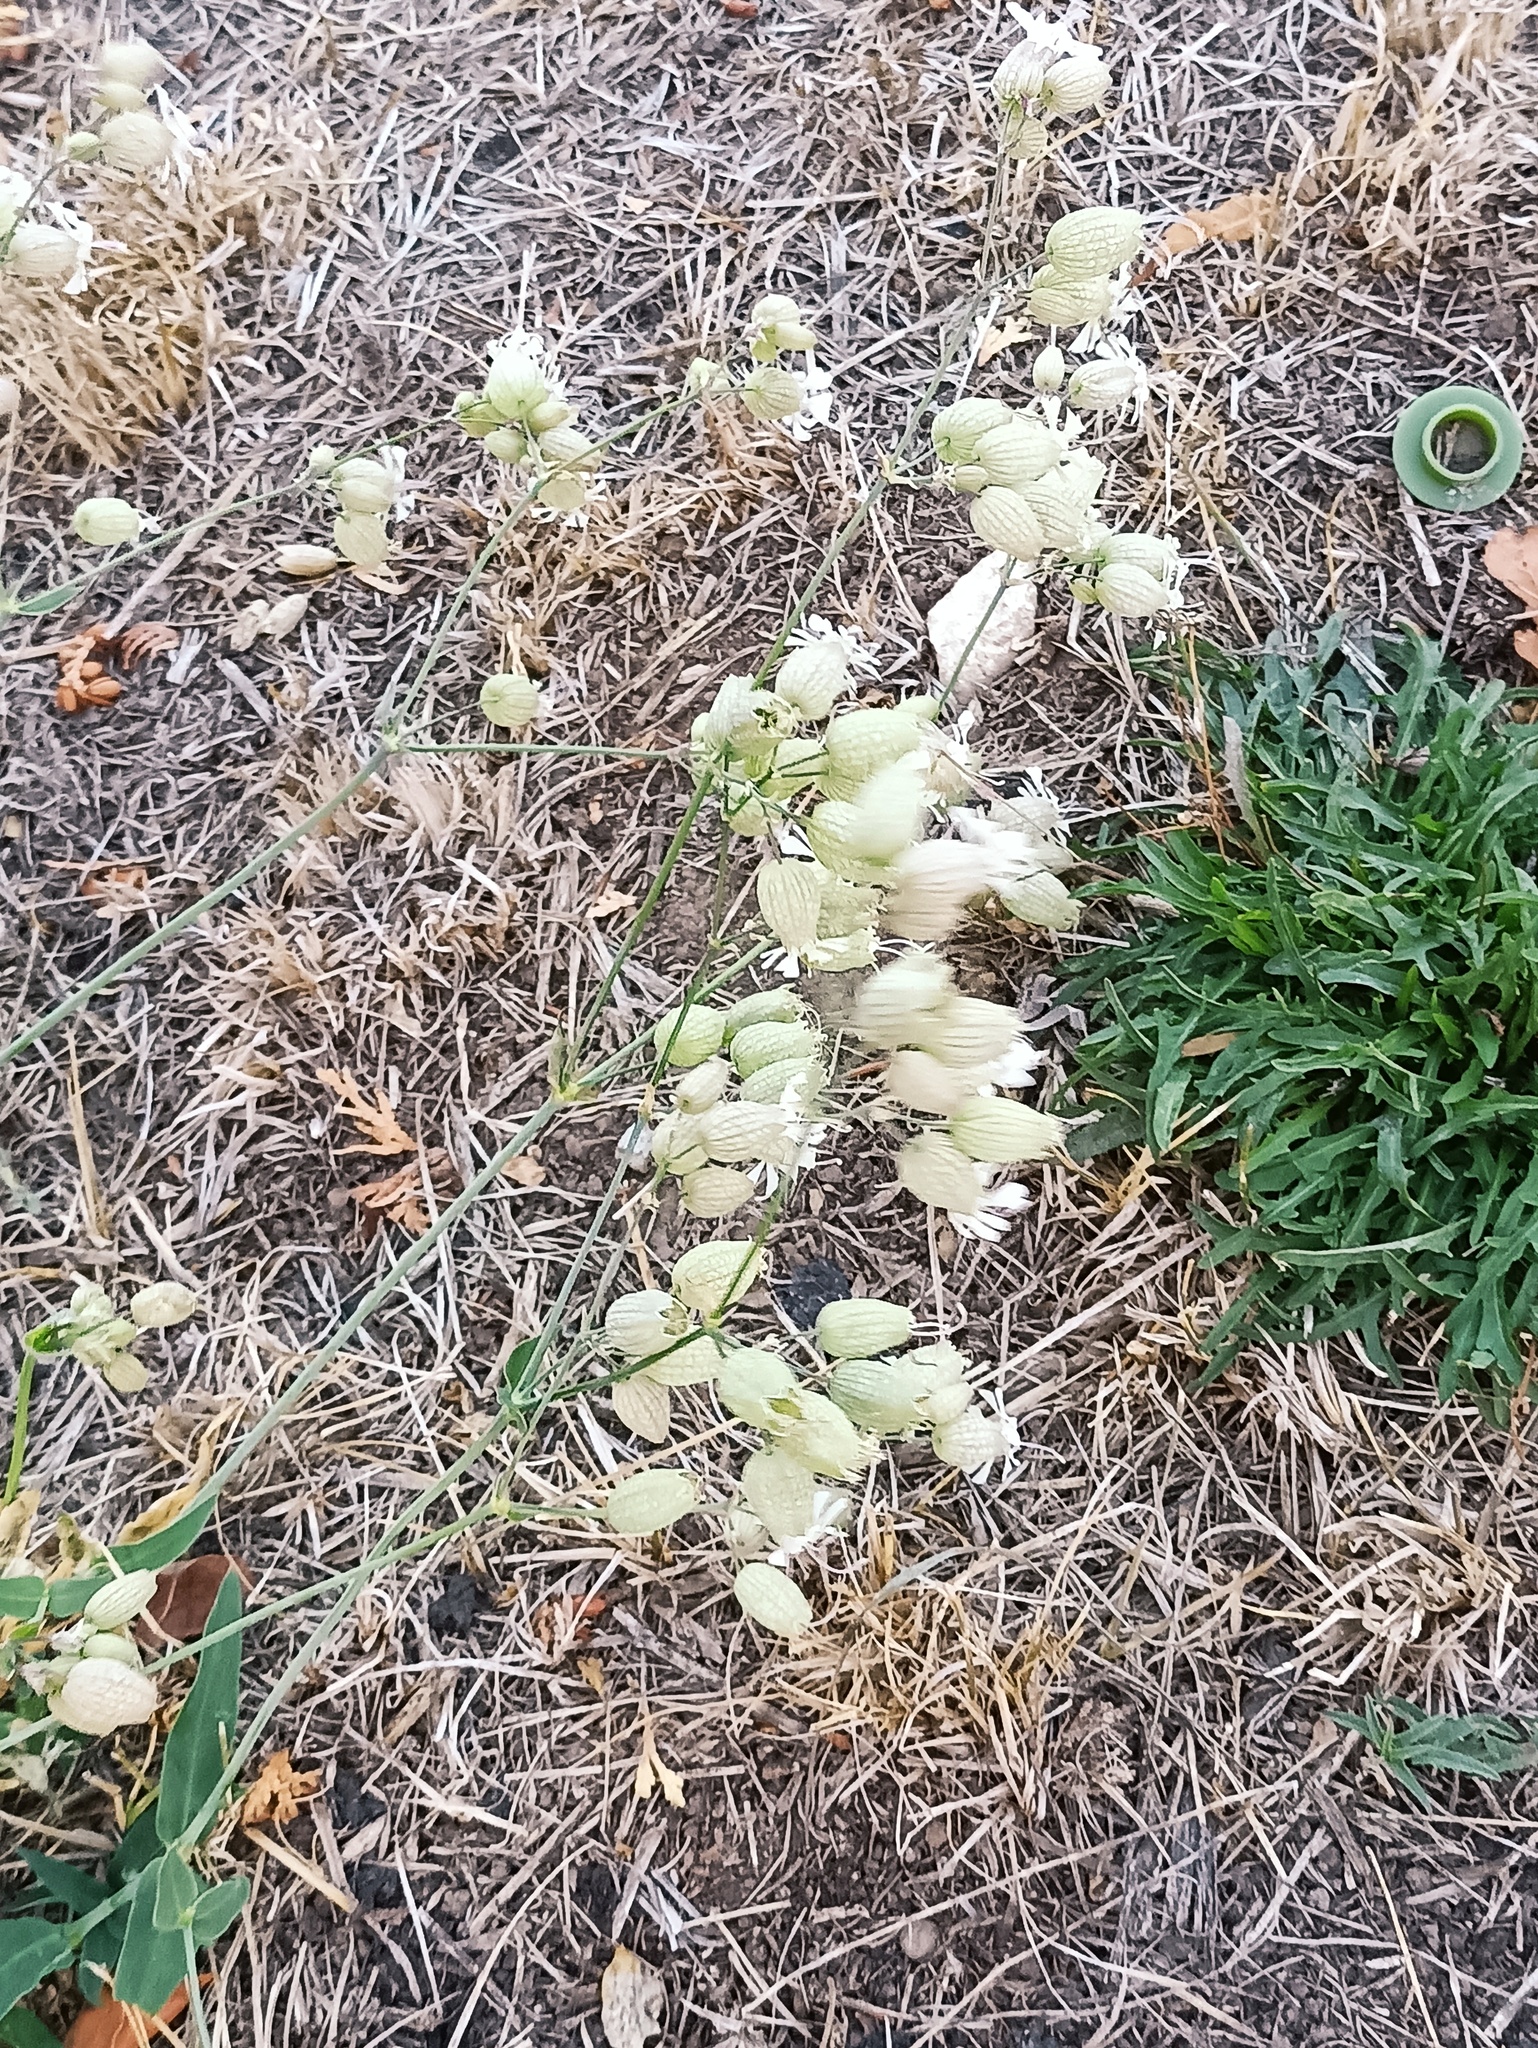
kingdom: Plantae
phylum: Tracheophyta
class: Magnoliopsida
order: Caryophyllales
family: Caryophyllaceae
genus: Silene
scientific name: Silene vulgaris
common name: Bladder campion
